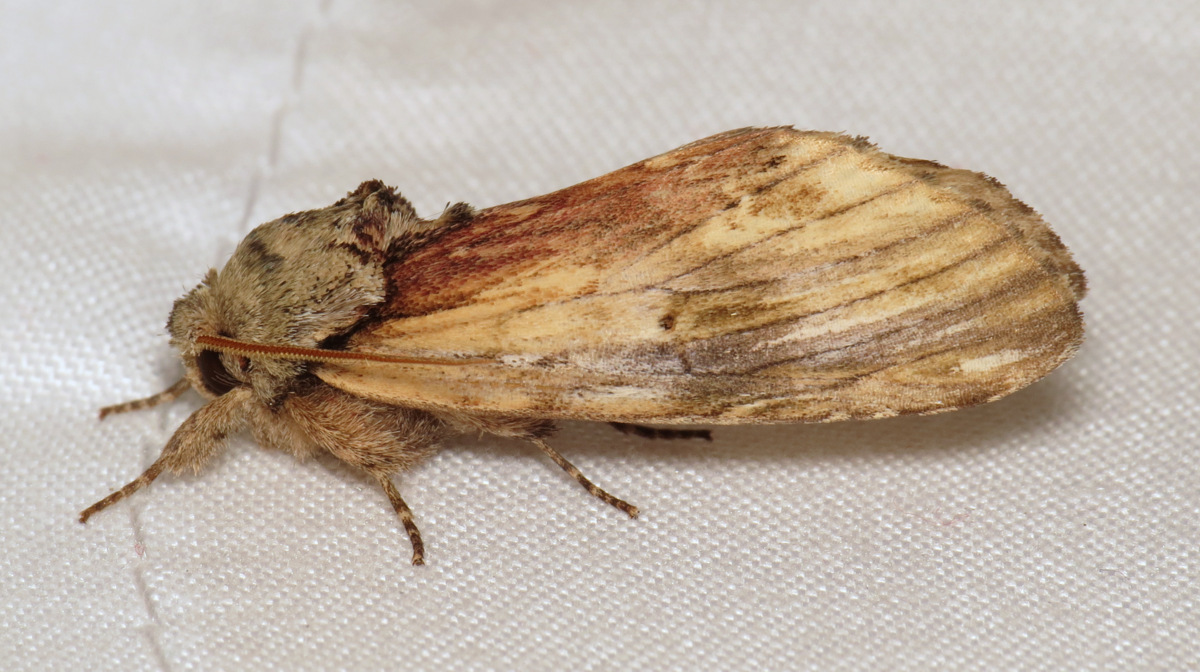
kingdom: Animalia
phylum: Arthropoda
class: Insecta
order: Lepidoptera
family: Notodontidae
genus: Schizura
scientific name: Schizura
